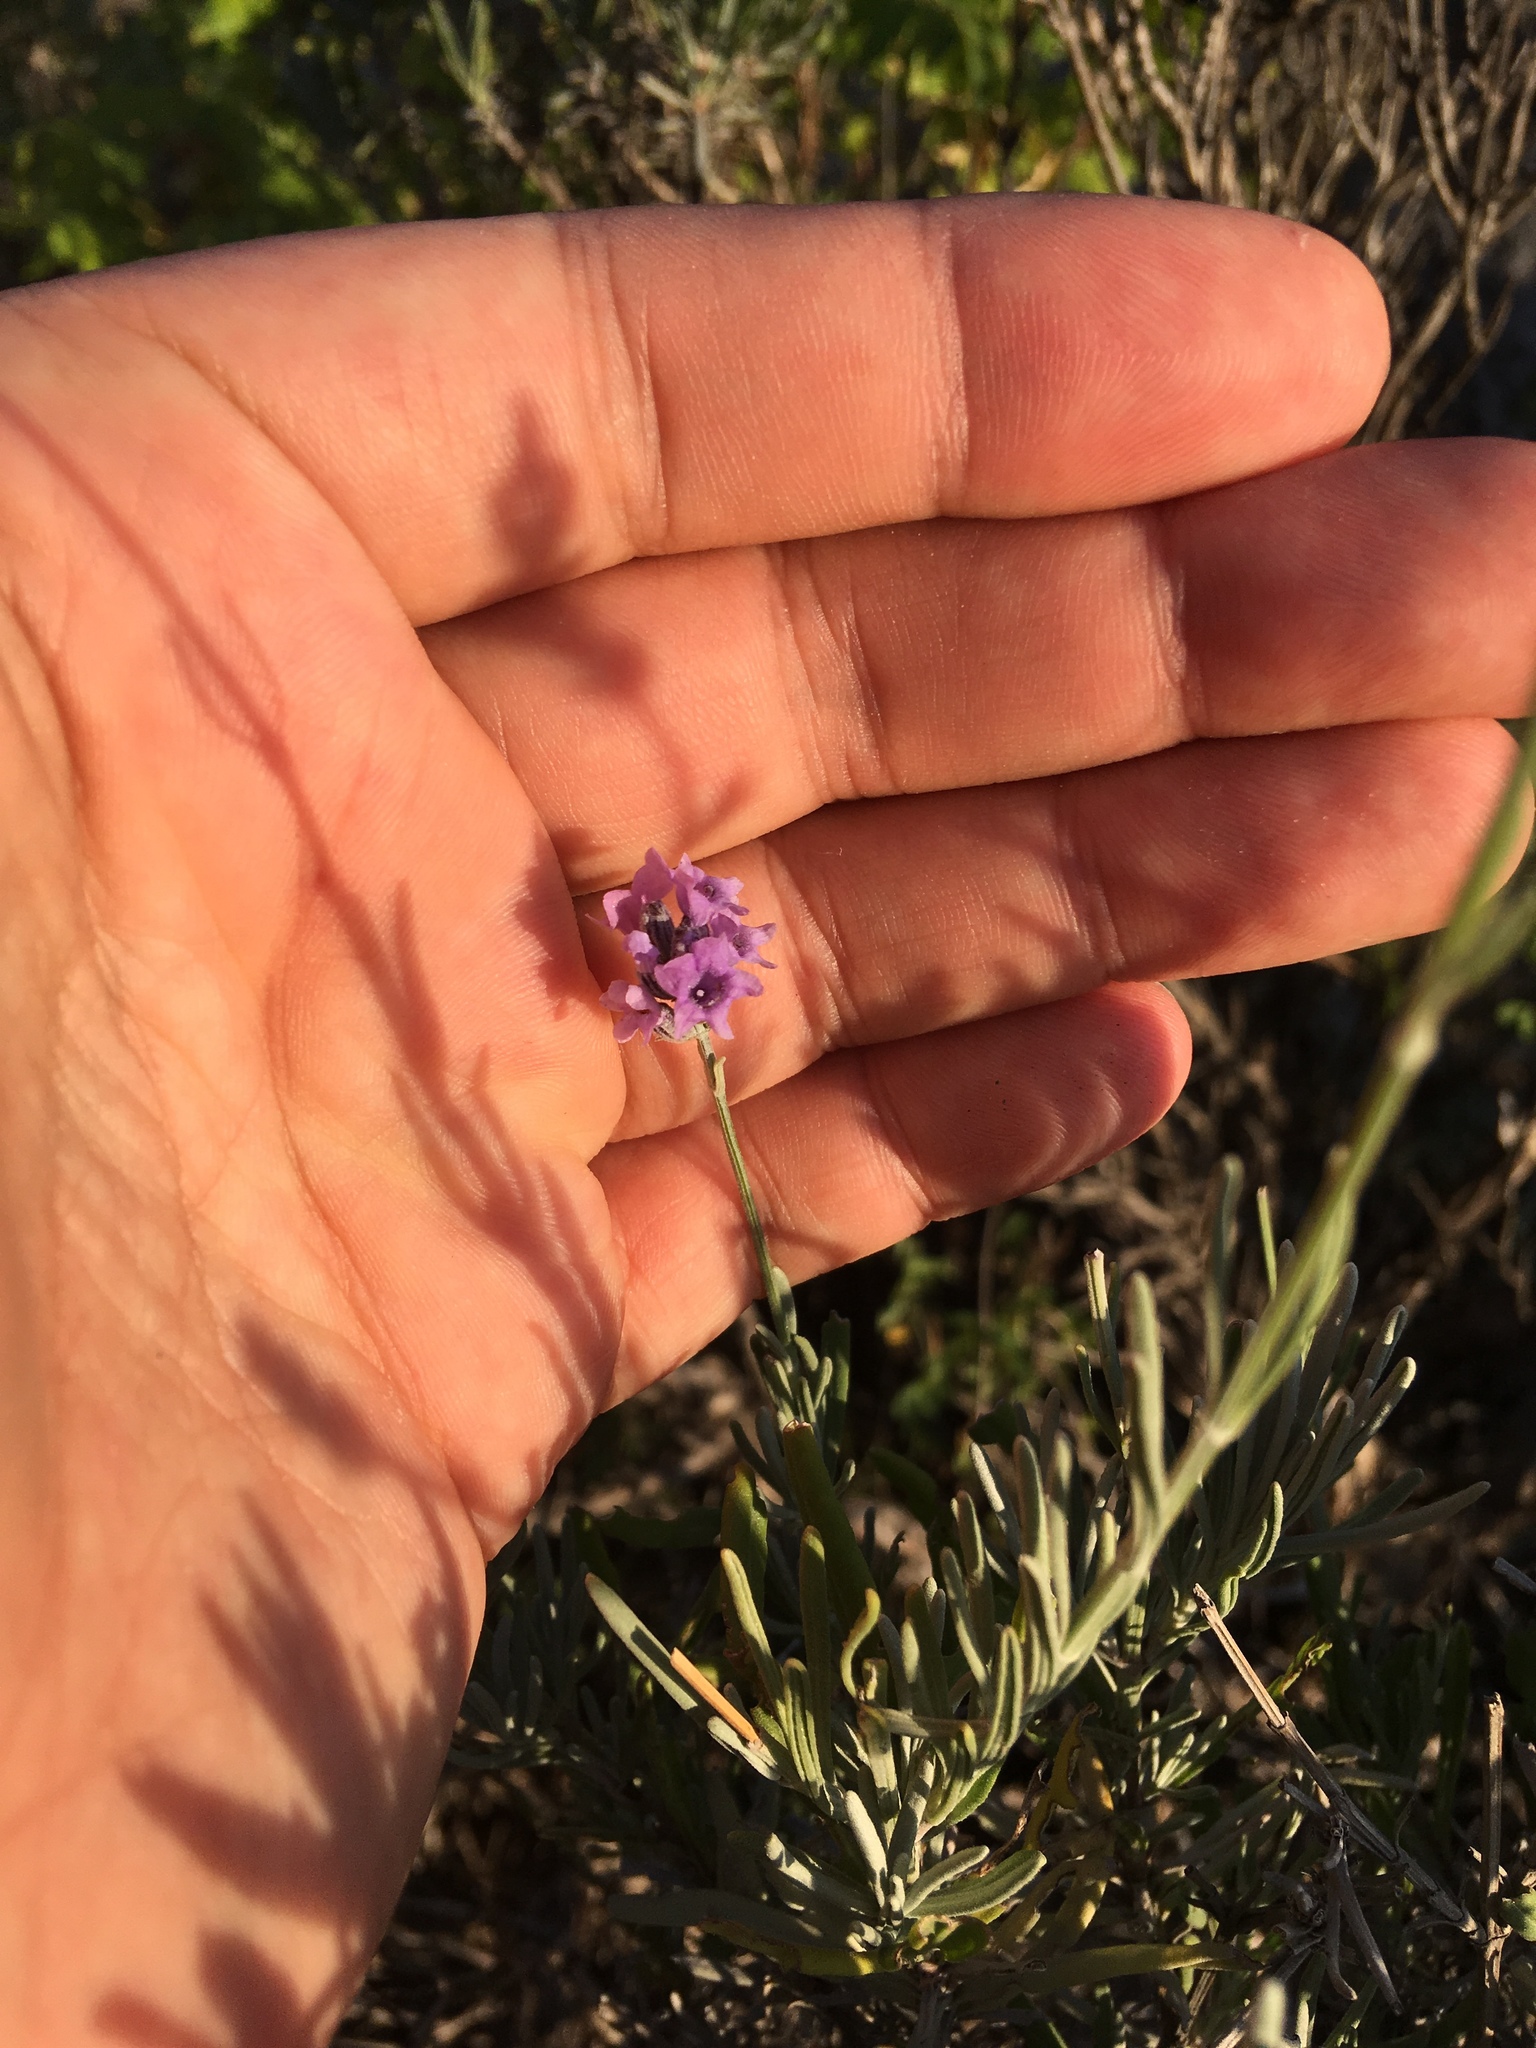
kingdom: Plantae
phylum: Tracheophyta
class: Magnoliopsida
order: Lamiales
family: Lamiaceae
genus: Lavandula
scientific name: Lavandula angustifolia
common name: Garden lavender
